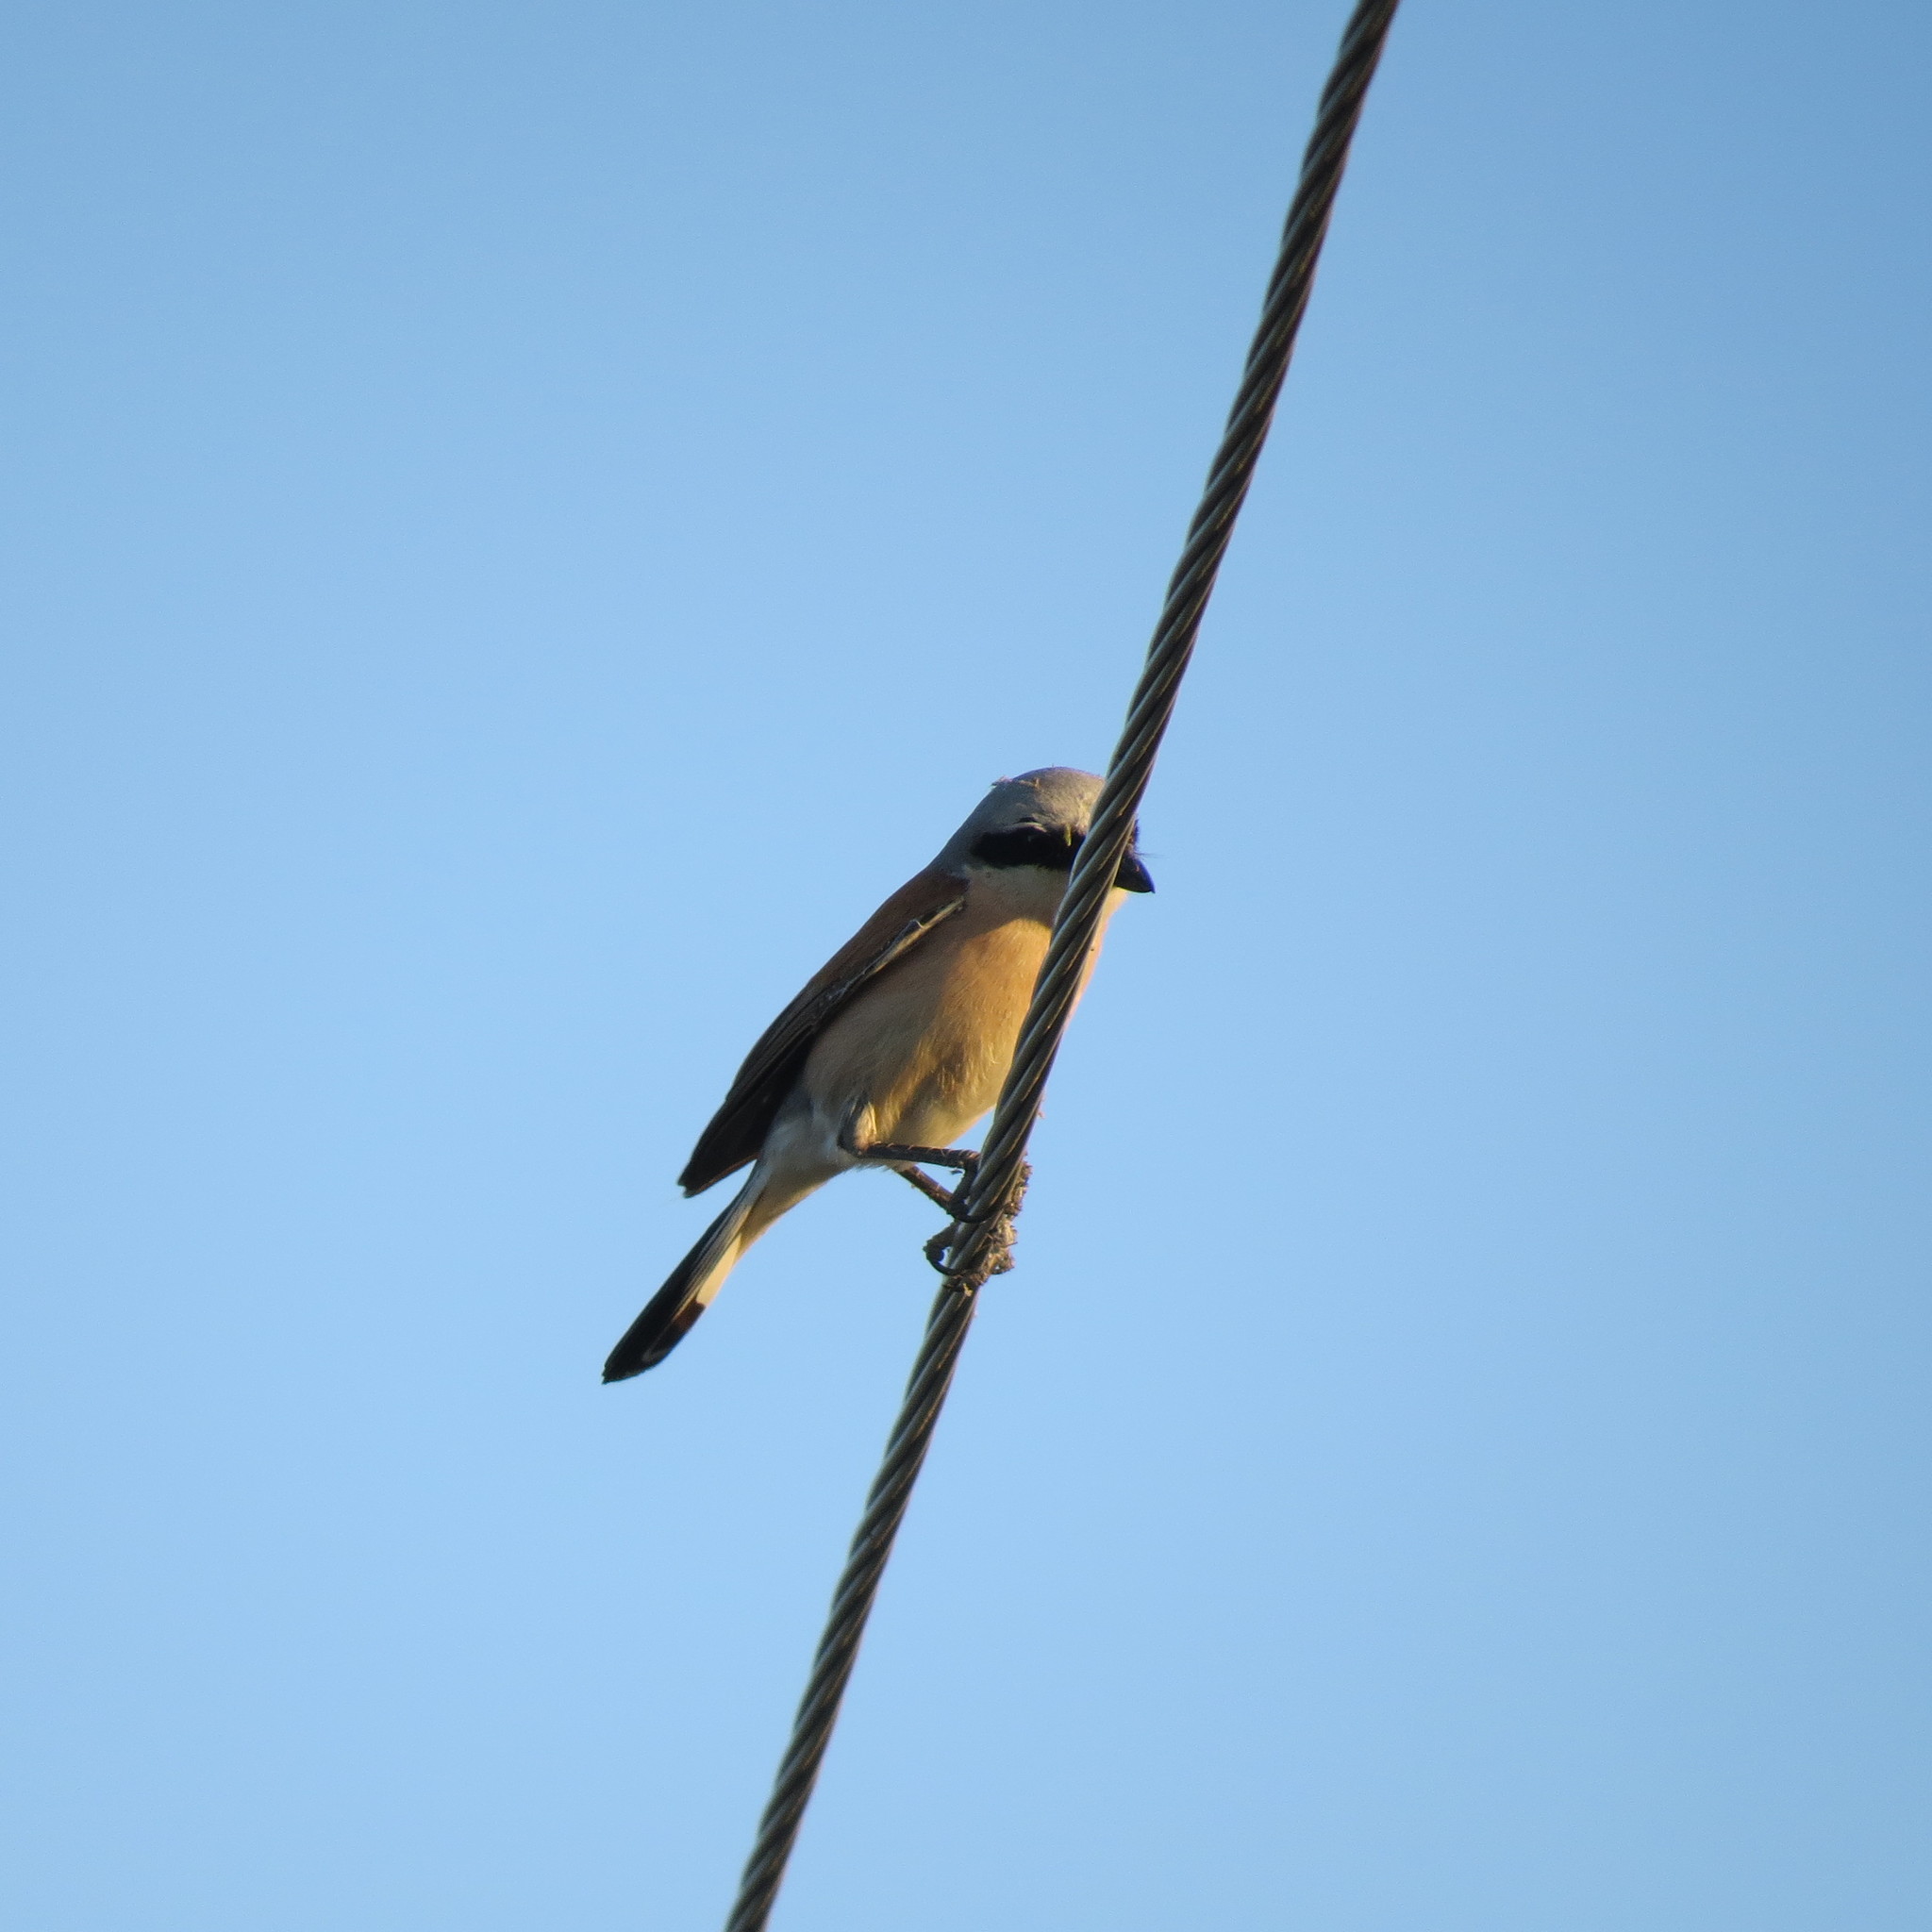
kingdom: Animalia
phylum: Chordata
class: Aves
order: Passeriformes
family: Laniidae
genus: Lanius
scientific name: Lanius collurio
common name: Red-backed shrike
